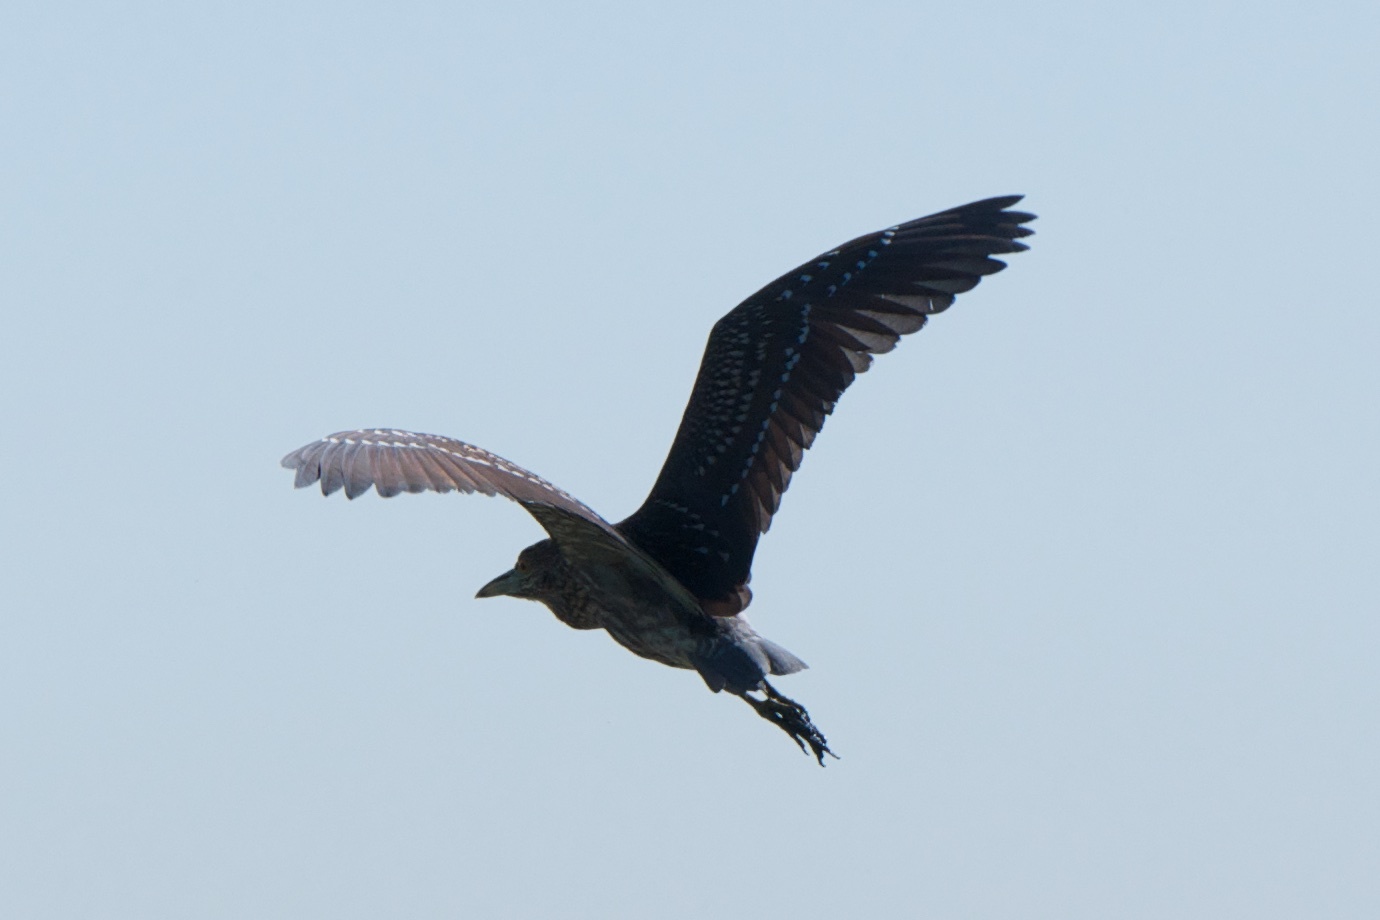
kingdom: Animalia
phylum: Chordata
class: Aves
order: Pelecaniformes
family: Ardeidae
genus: Nycticorax
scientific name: Nycticorax nycticorax
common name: Black-crowned night heron
